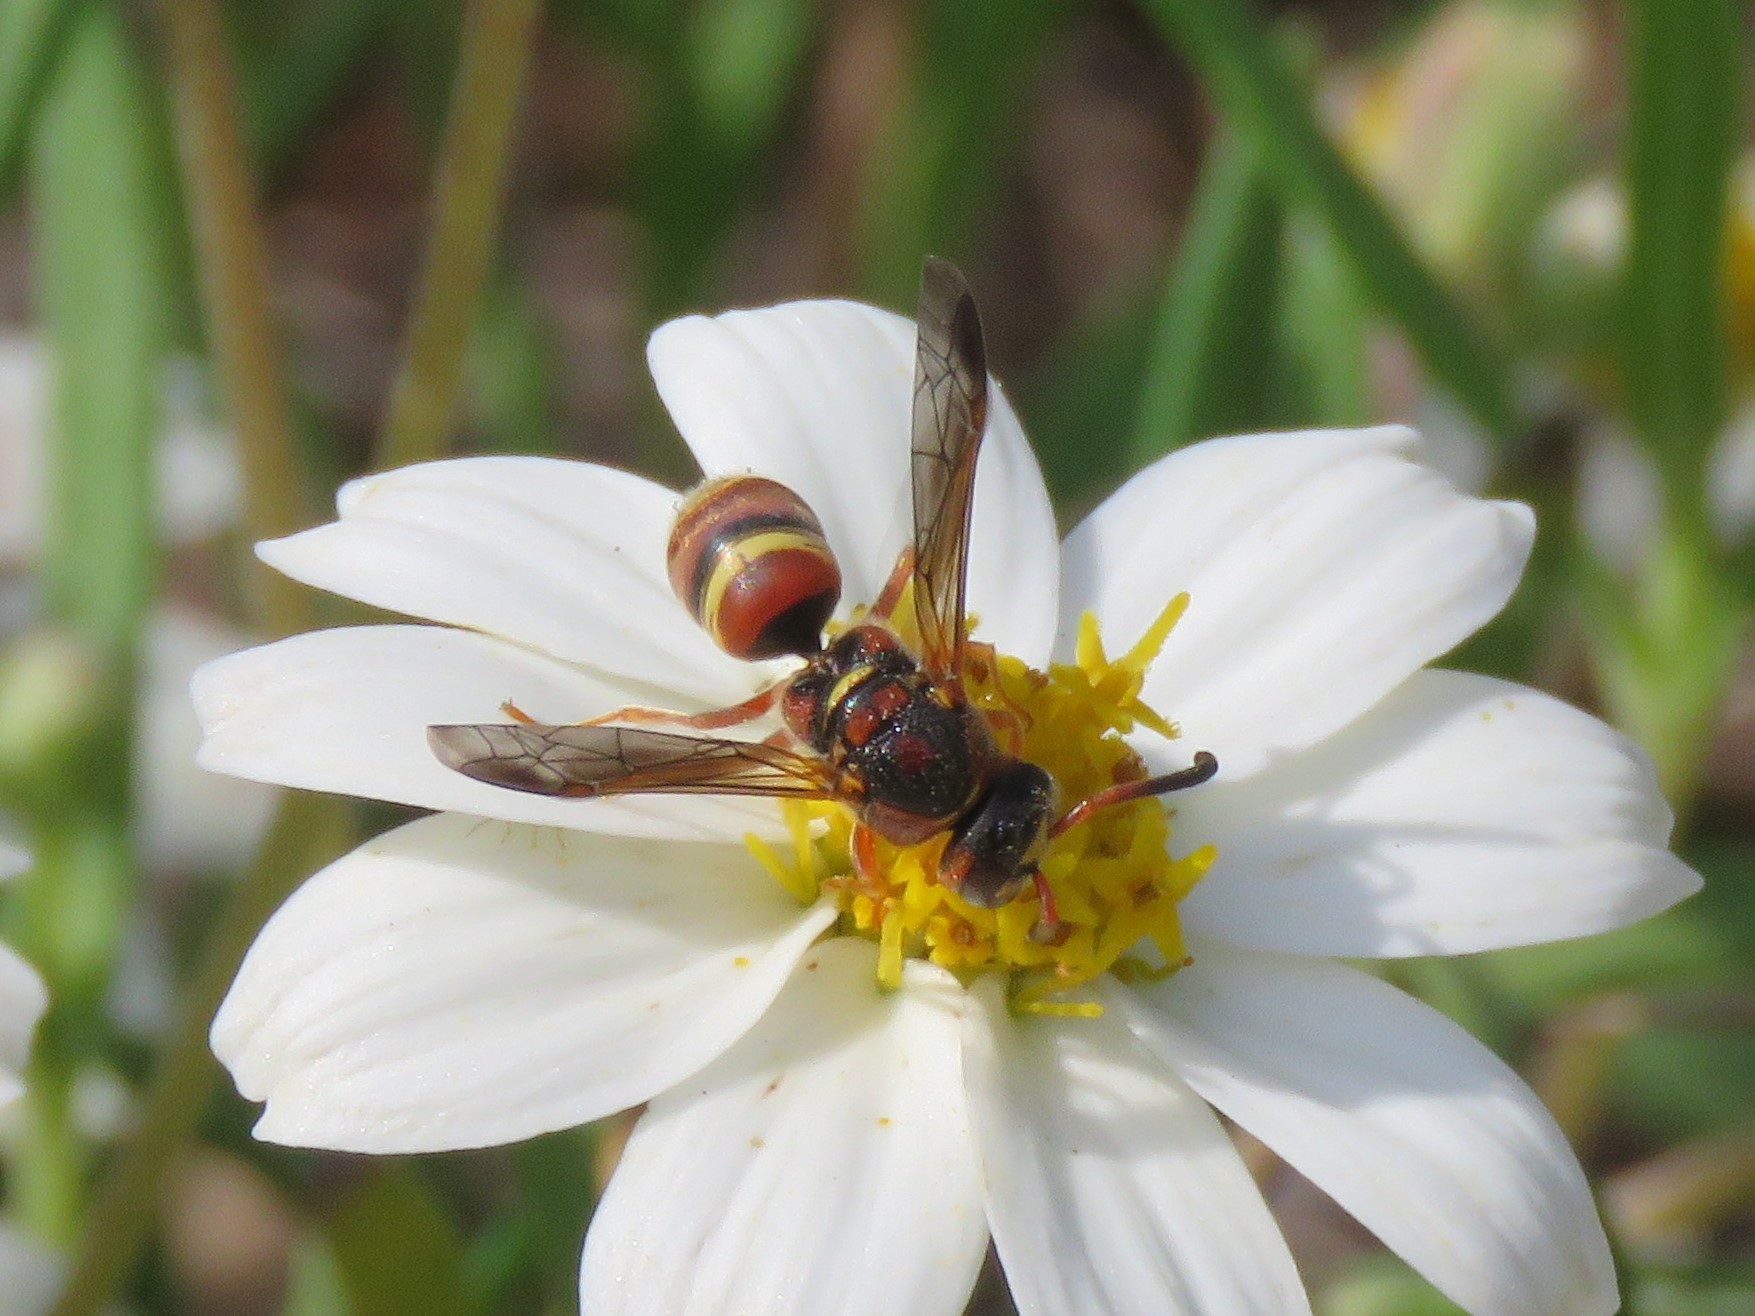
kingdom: Animalia
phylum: Arthropoda
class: Insecta
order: Hymenoptera
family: Eumenidae
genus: Euodynerus
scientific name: Euodynerus pratensis
